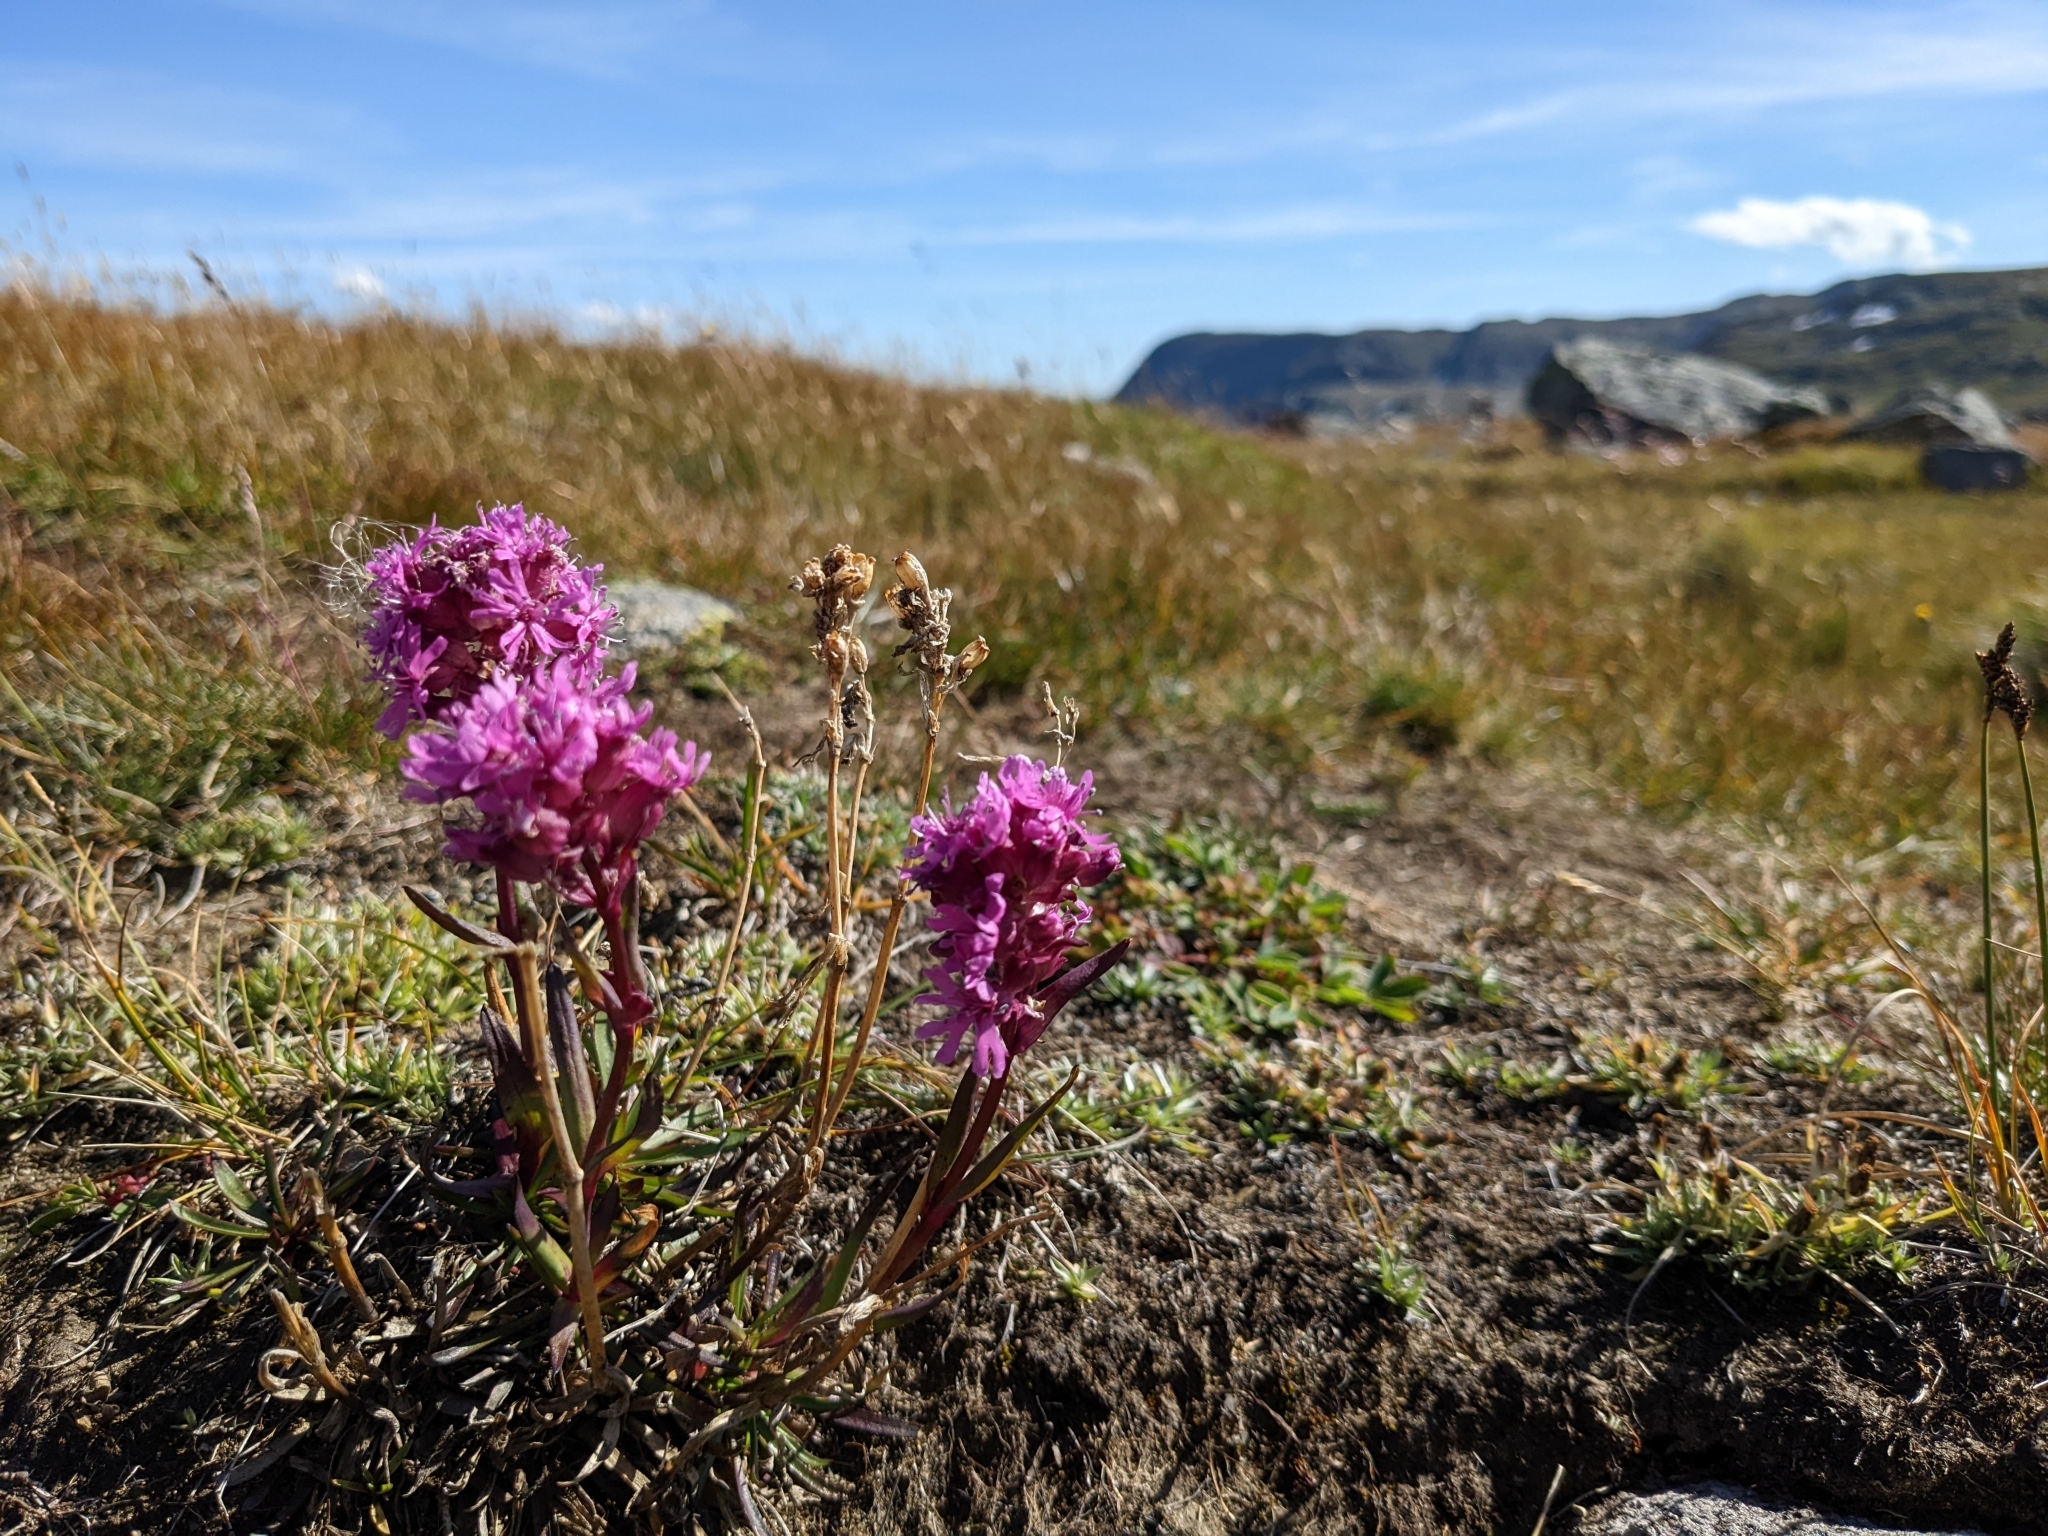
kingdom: Plantae
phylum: Tracheophyta
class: Magnoliopsida
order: Caryophyllales
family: Caryophyllaceae
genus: Viscaria
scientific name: Viscaria alpina
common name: Alpine campion
